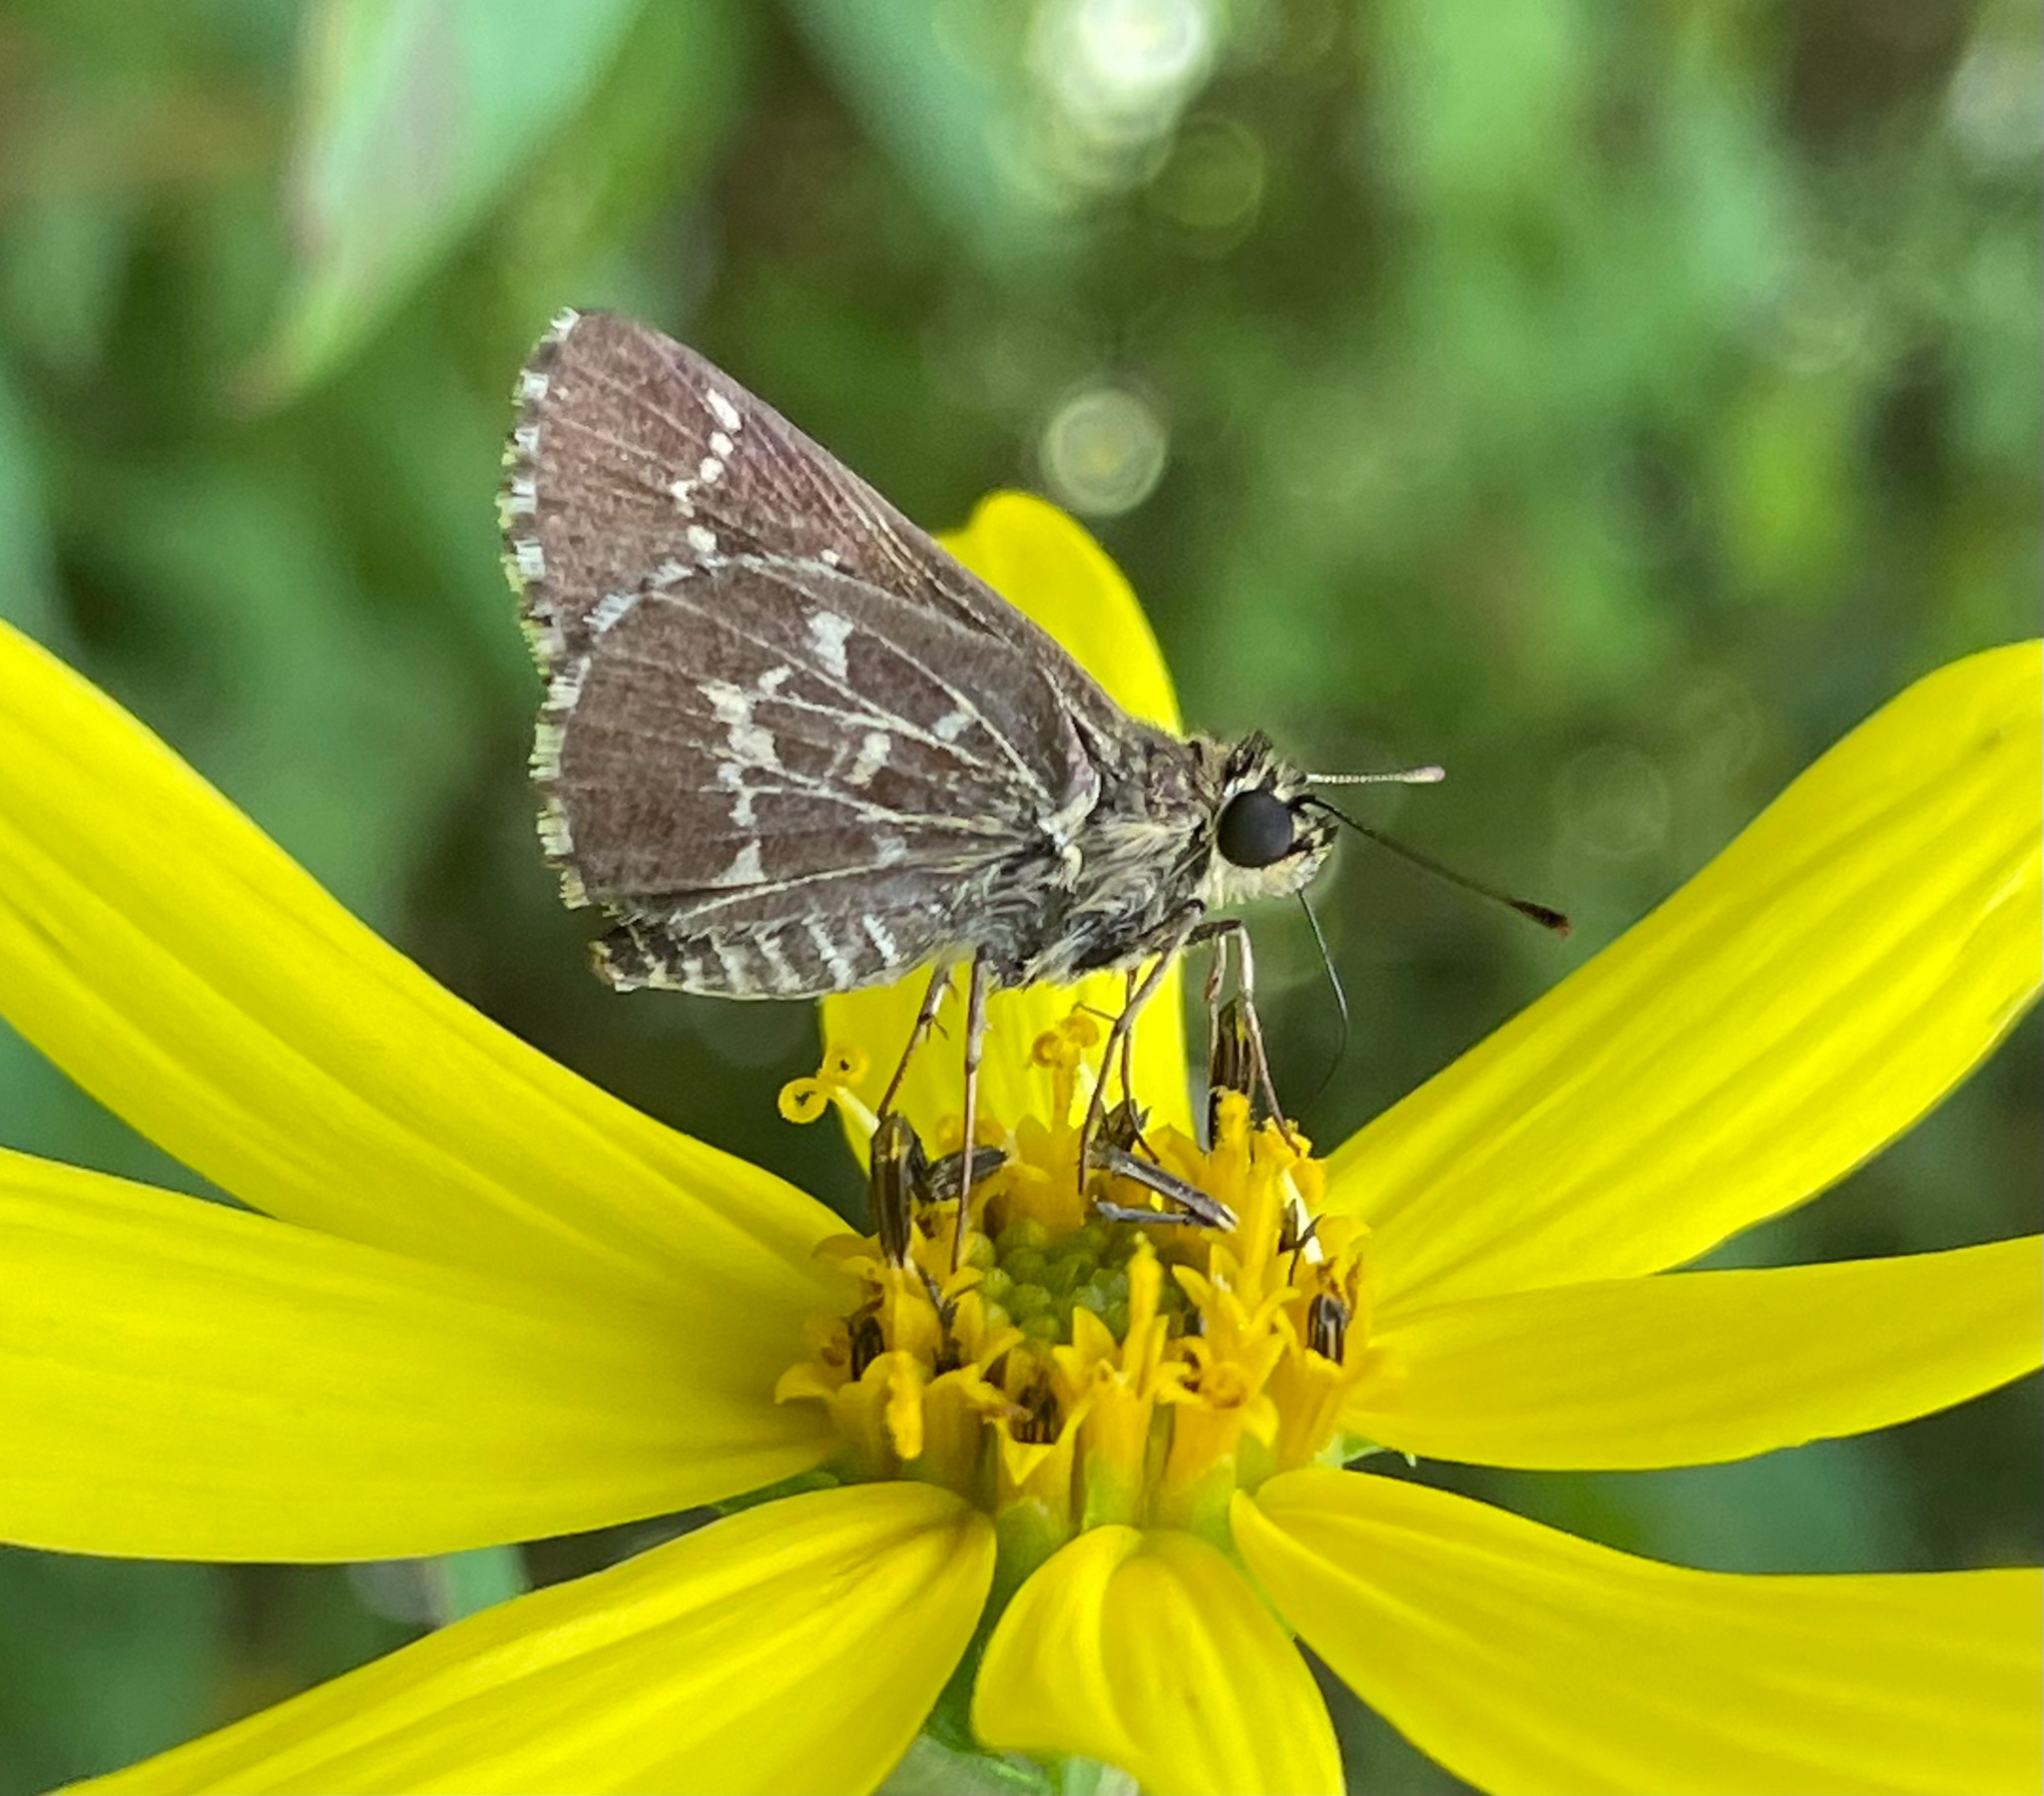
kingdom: Animalia
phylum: Arthropoda
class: Insecta
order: Lepidoptera
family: Hesperiidae
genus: Mastor
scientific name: Mastor aesculapius
